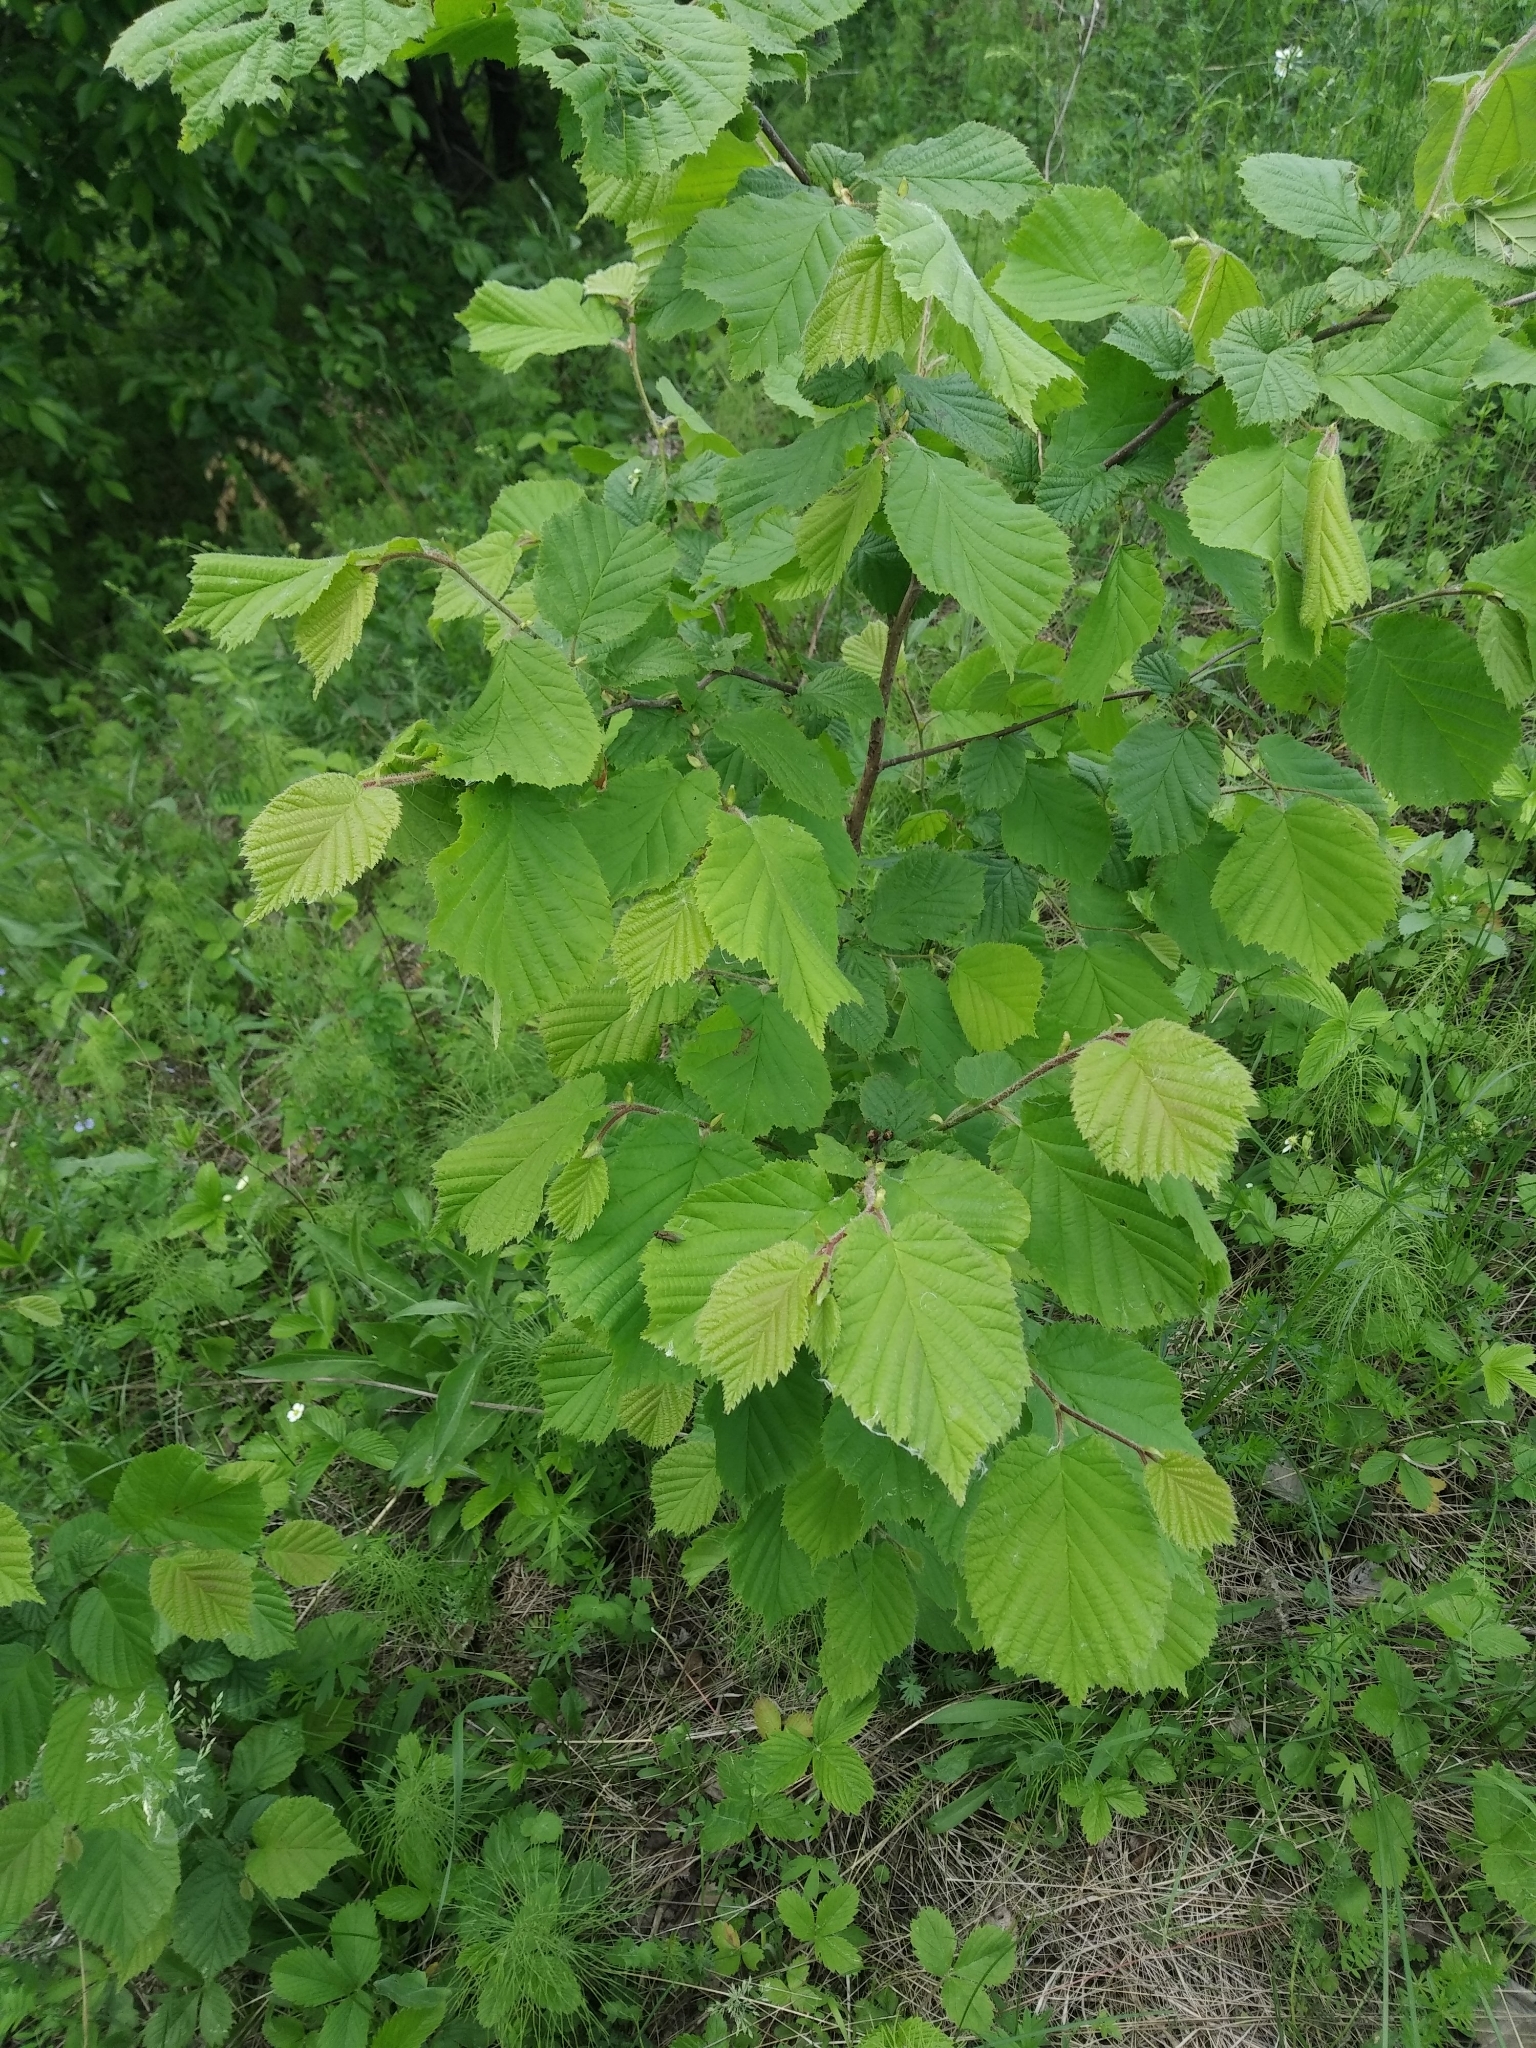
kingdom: Plantae
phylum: Tracheophyta
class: Magnoliopsida
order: Fagales
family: Betulaceae
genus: Corylus
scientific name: Corylus avellana
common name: European hazel
